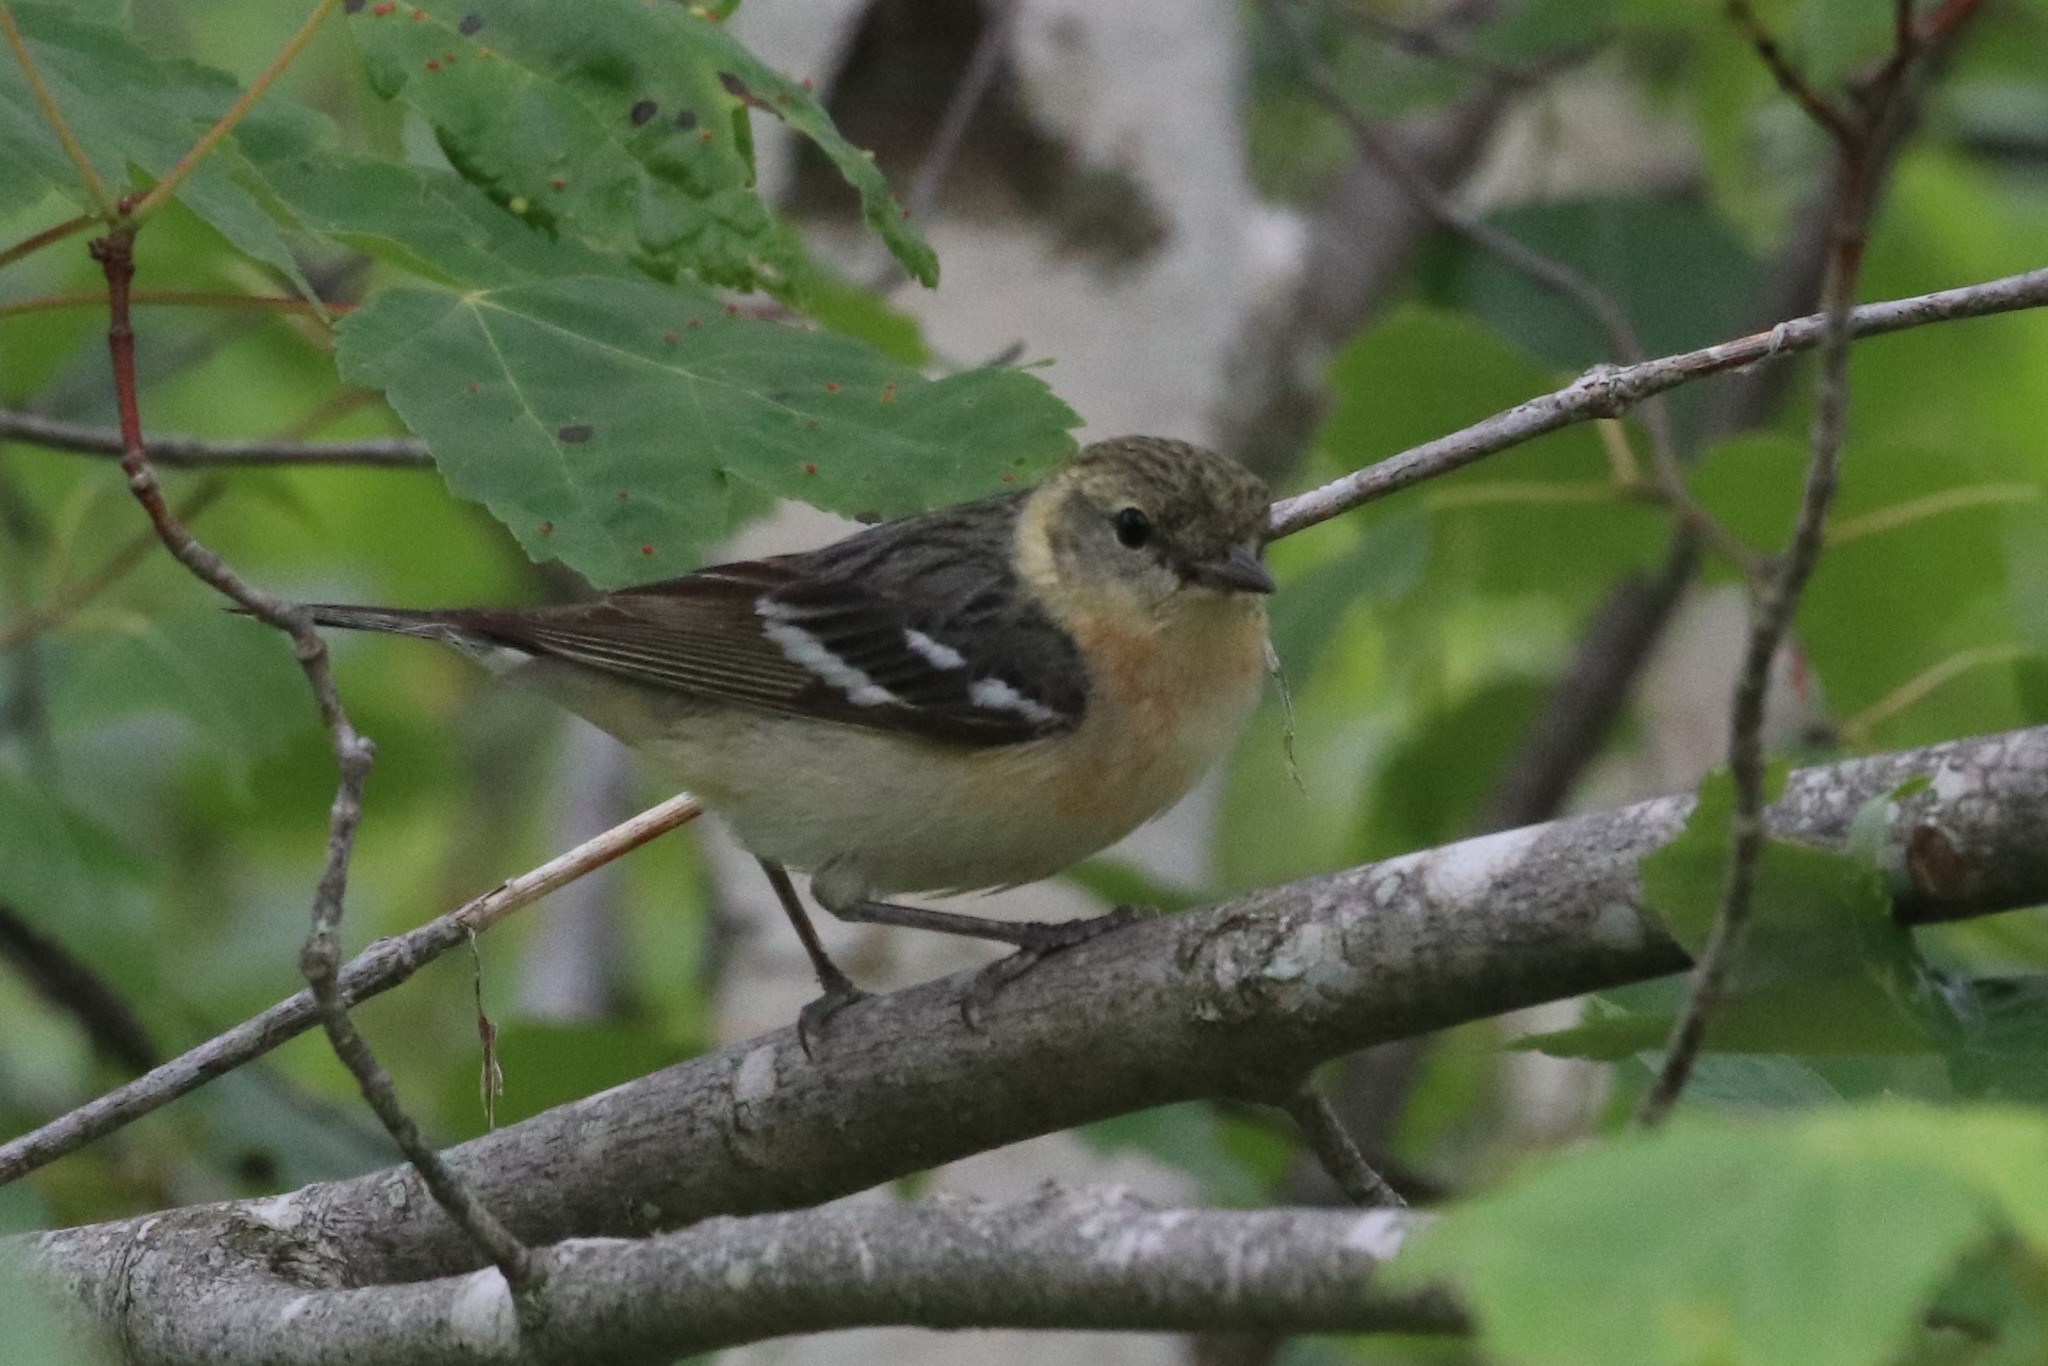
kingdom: Animalia
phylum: Chordata
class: Aves
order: Passeriformes
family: Parulidae
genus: Setophaga
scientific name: Setophaga castanea
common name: Bay-breasted warbler
